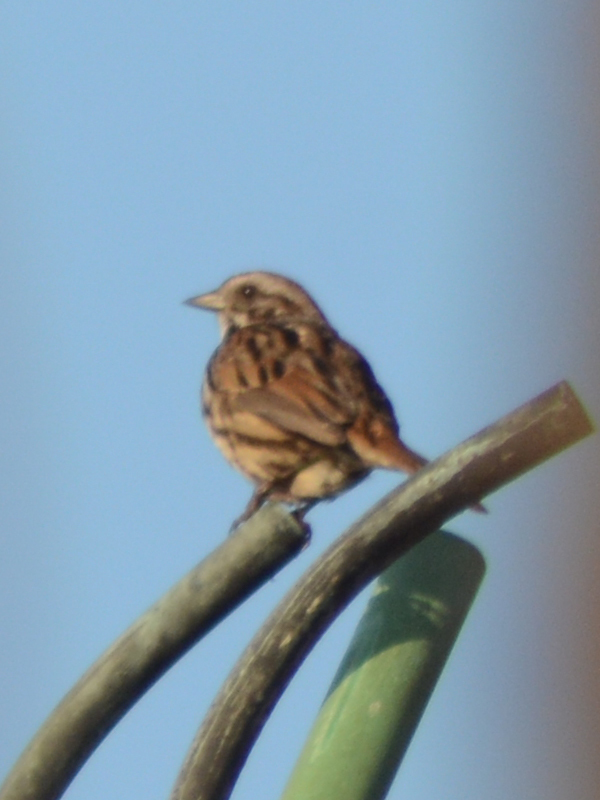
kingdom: Animalia
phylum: Chordata
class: Aves
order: Passeriformes
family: Passerellidae
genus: Melospiza
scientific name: Melospiza melodia
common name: Song sparrow
